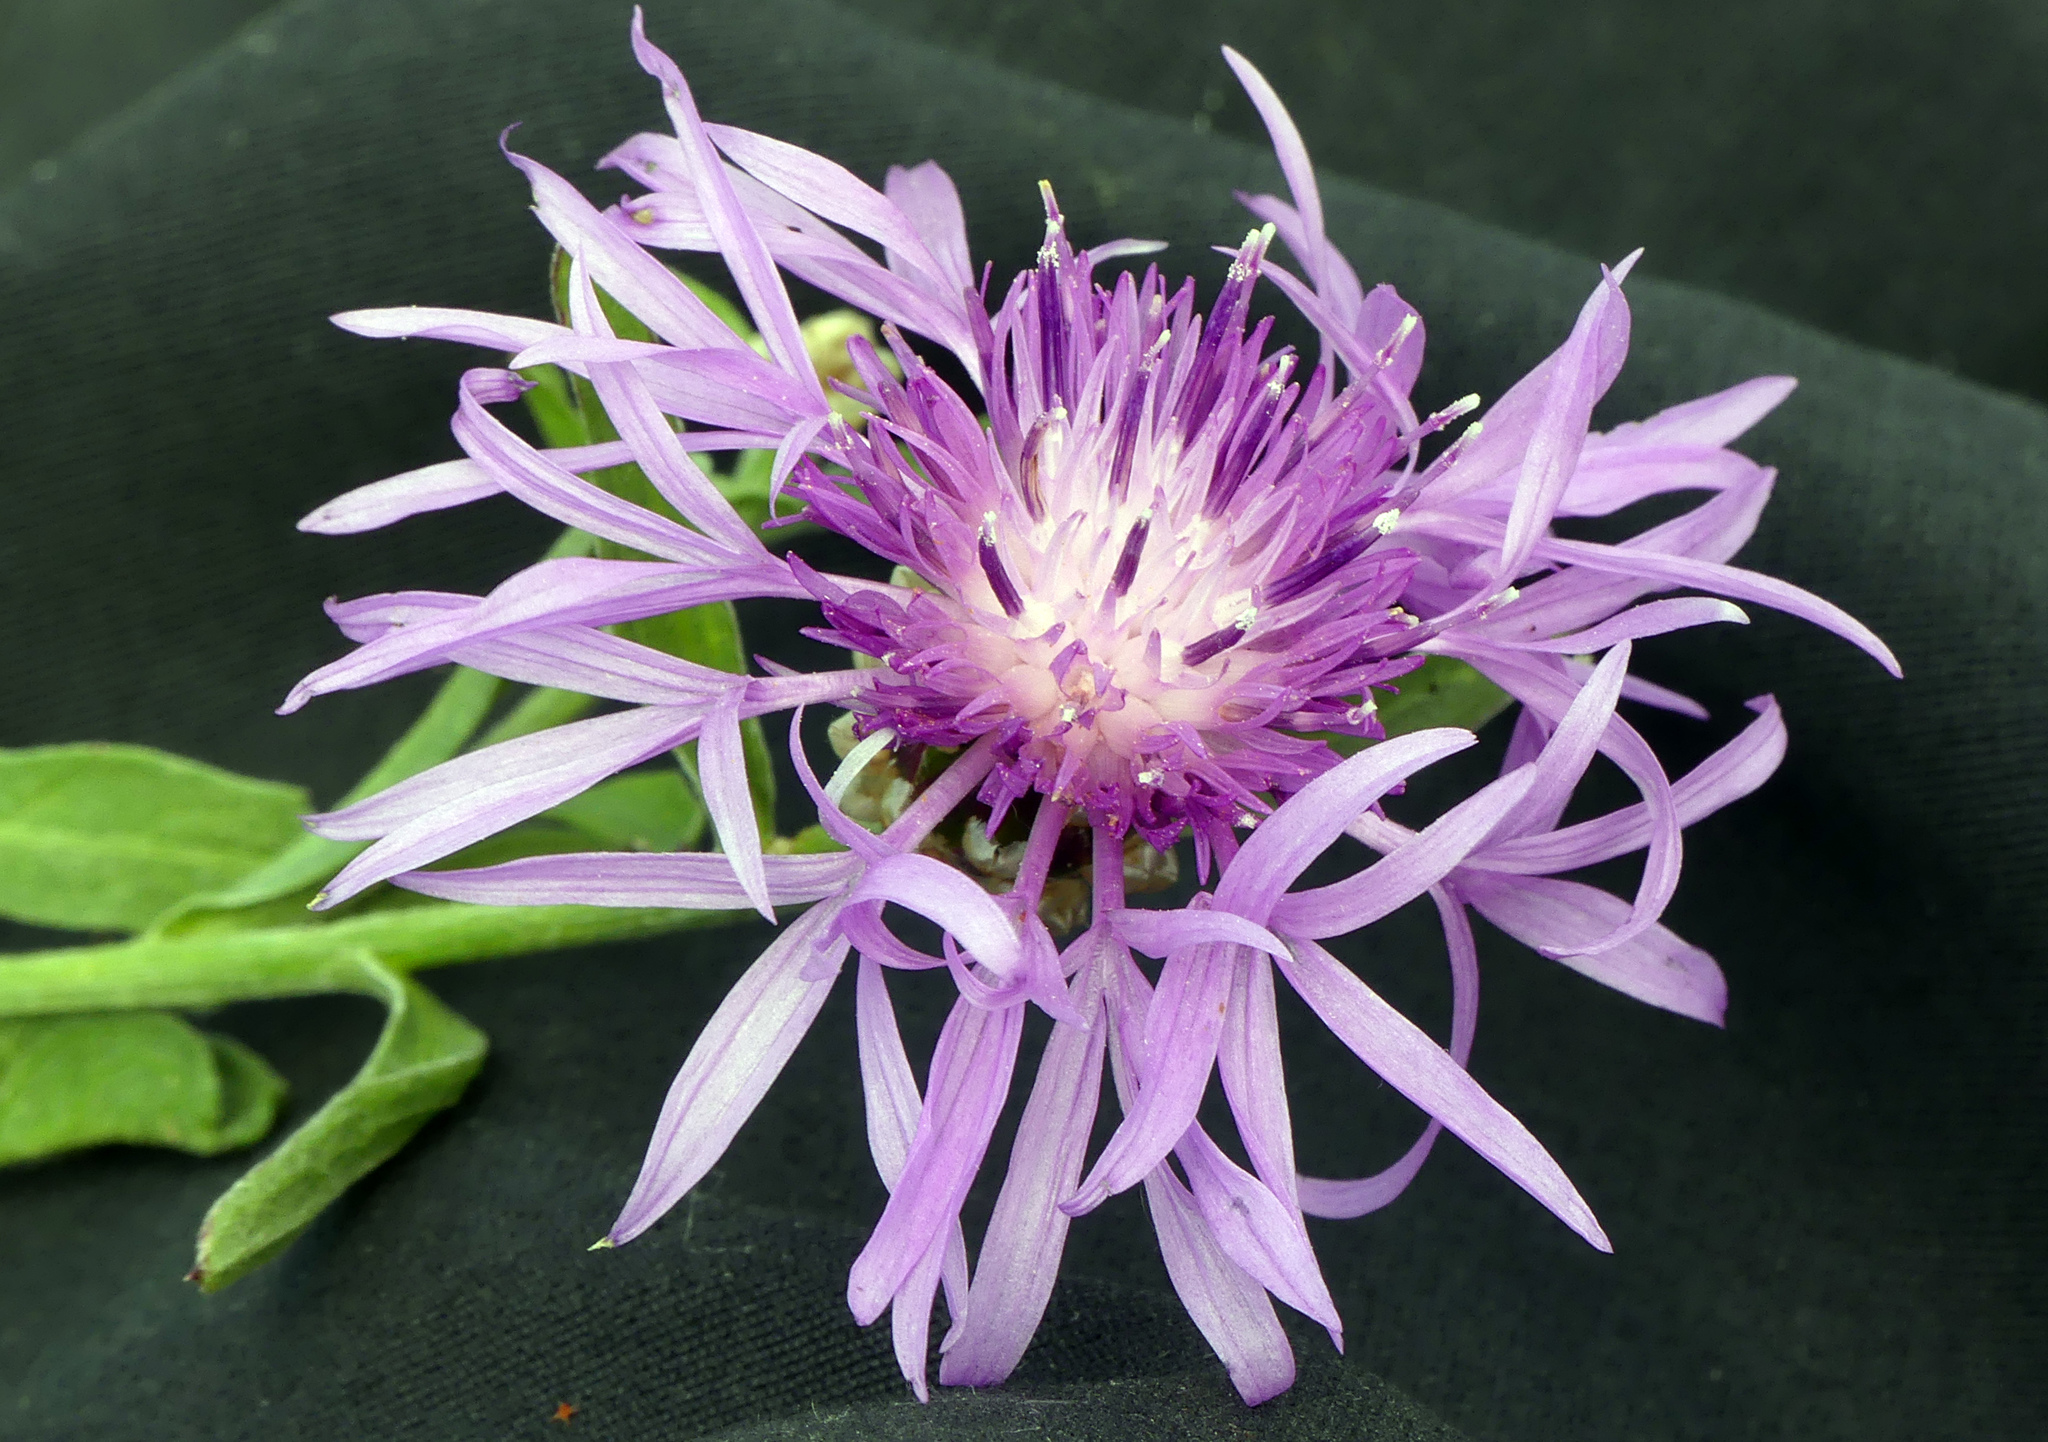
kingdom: Plantae
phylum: Tracheophyta
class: Magnoliopsida
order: Asterales
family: Asteraceae
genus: Centaurea
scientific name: Centaurea jacea
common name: Brown knapweed
